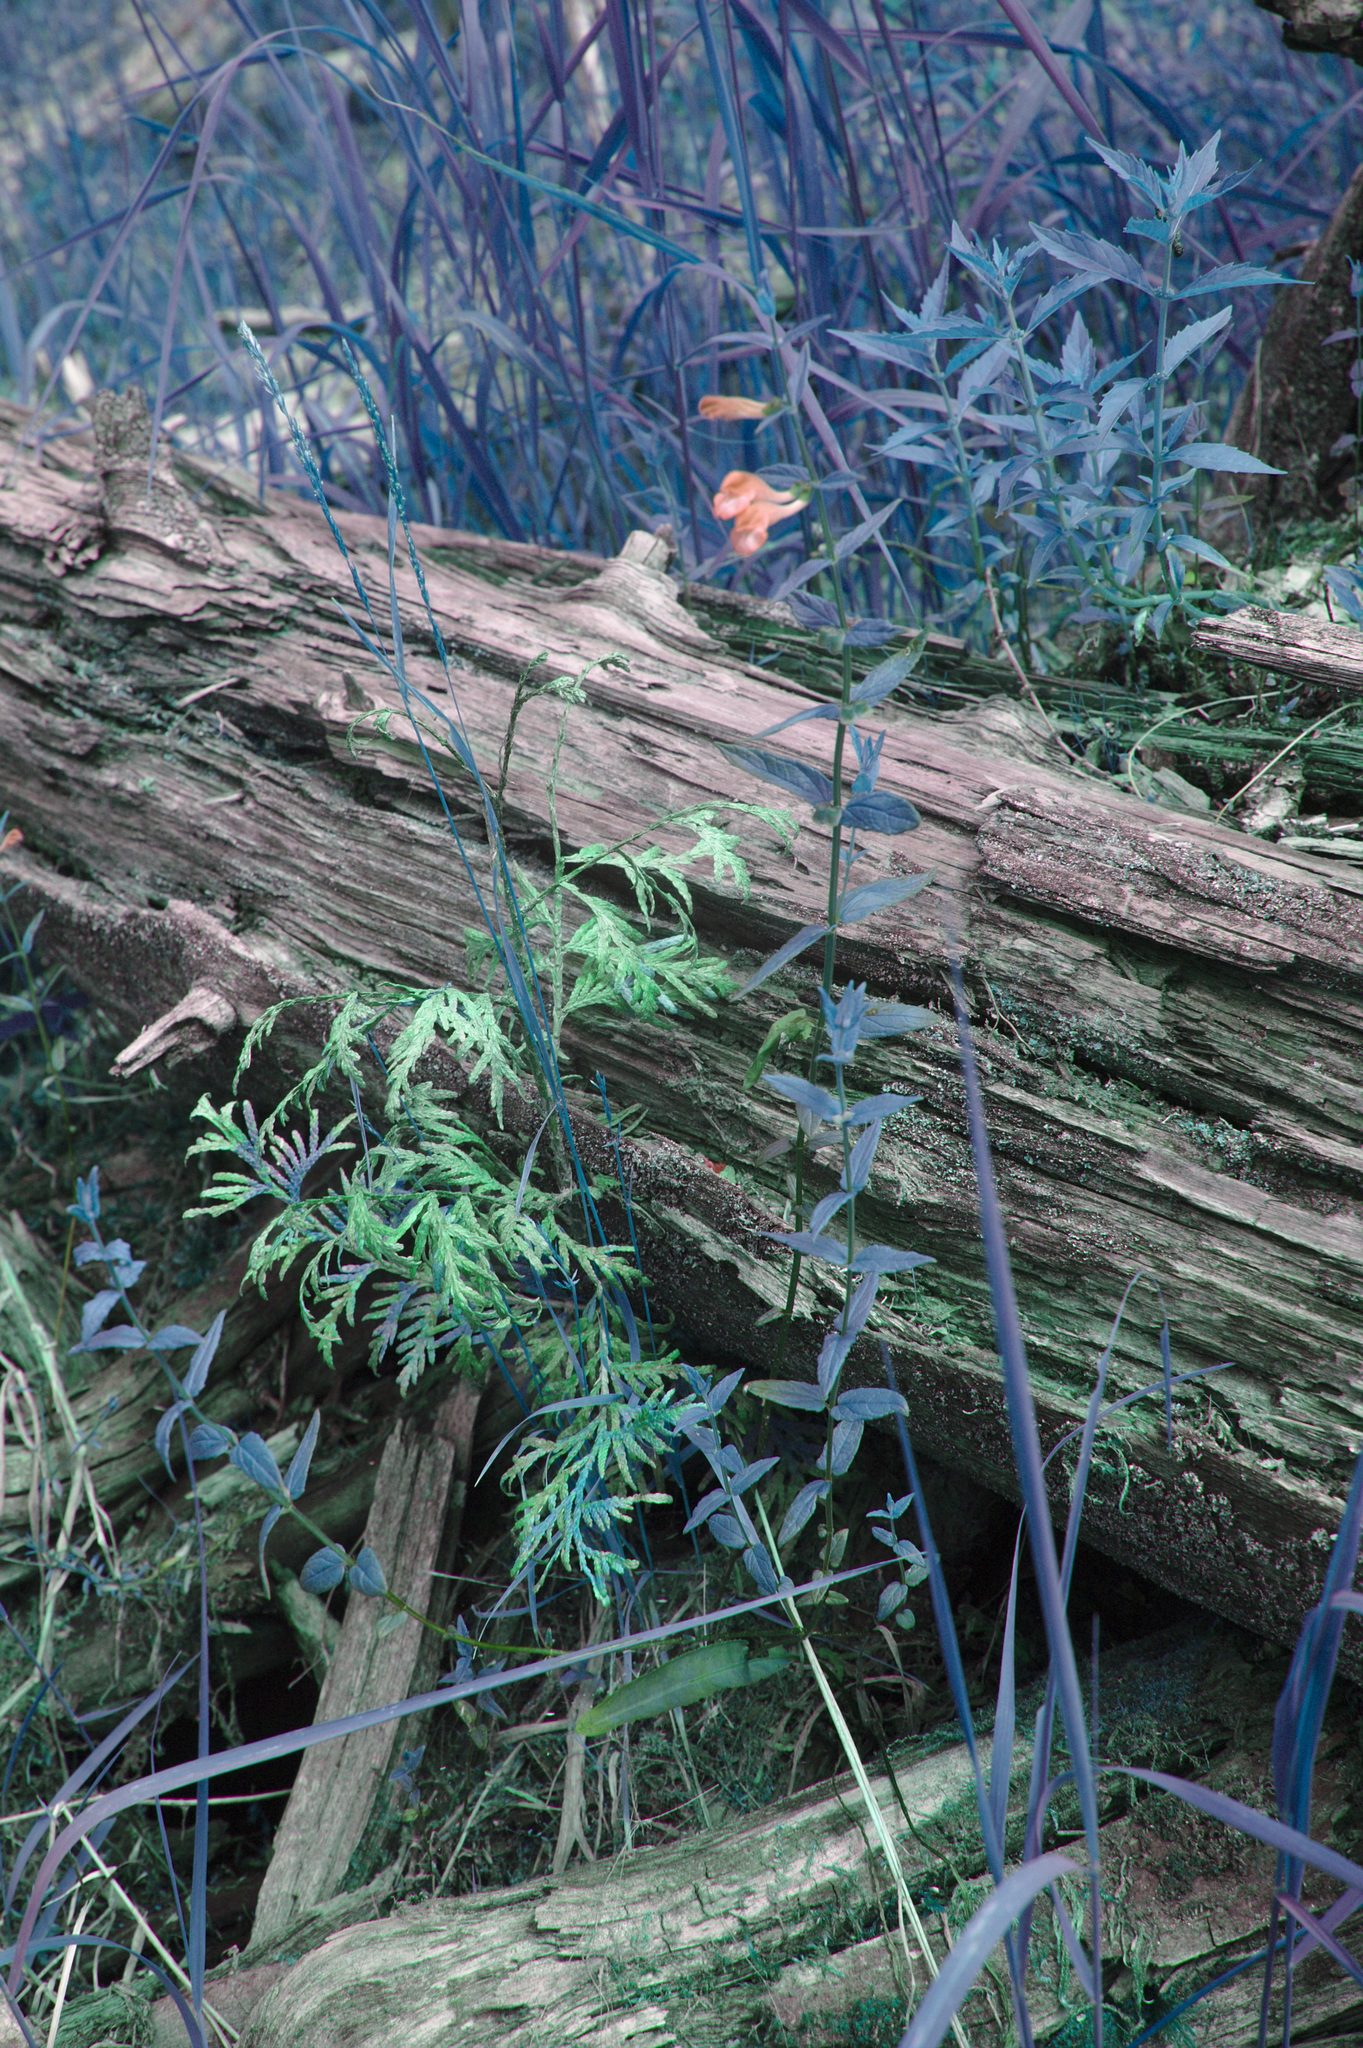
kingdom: Plantae
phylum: Tracheophyta
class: Magnoliopsida
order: Lamiales
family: Lamiaceae
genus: Scutellaria
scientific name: Scutellaria galericulata
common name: Skullcap
